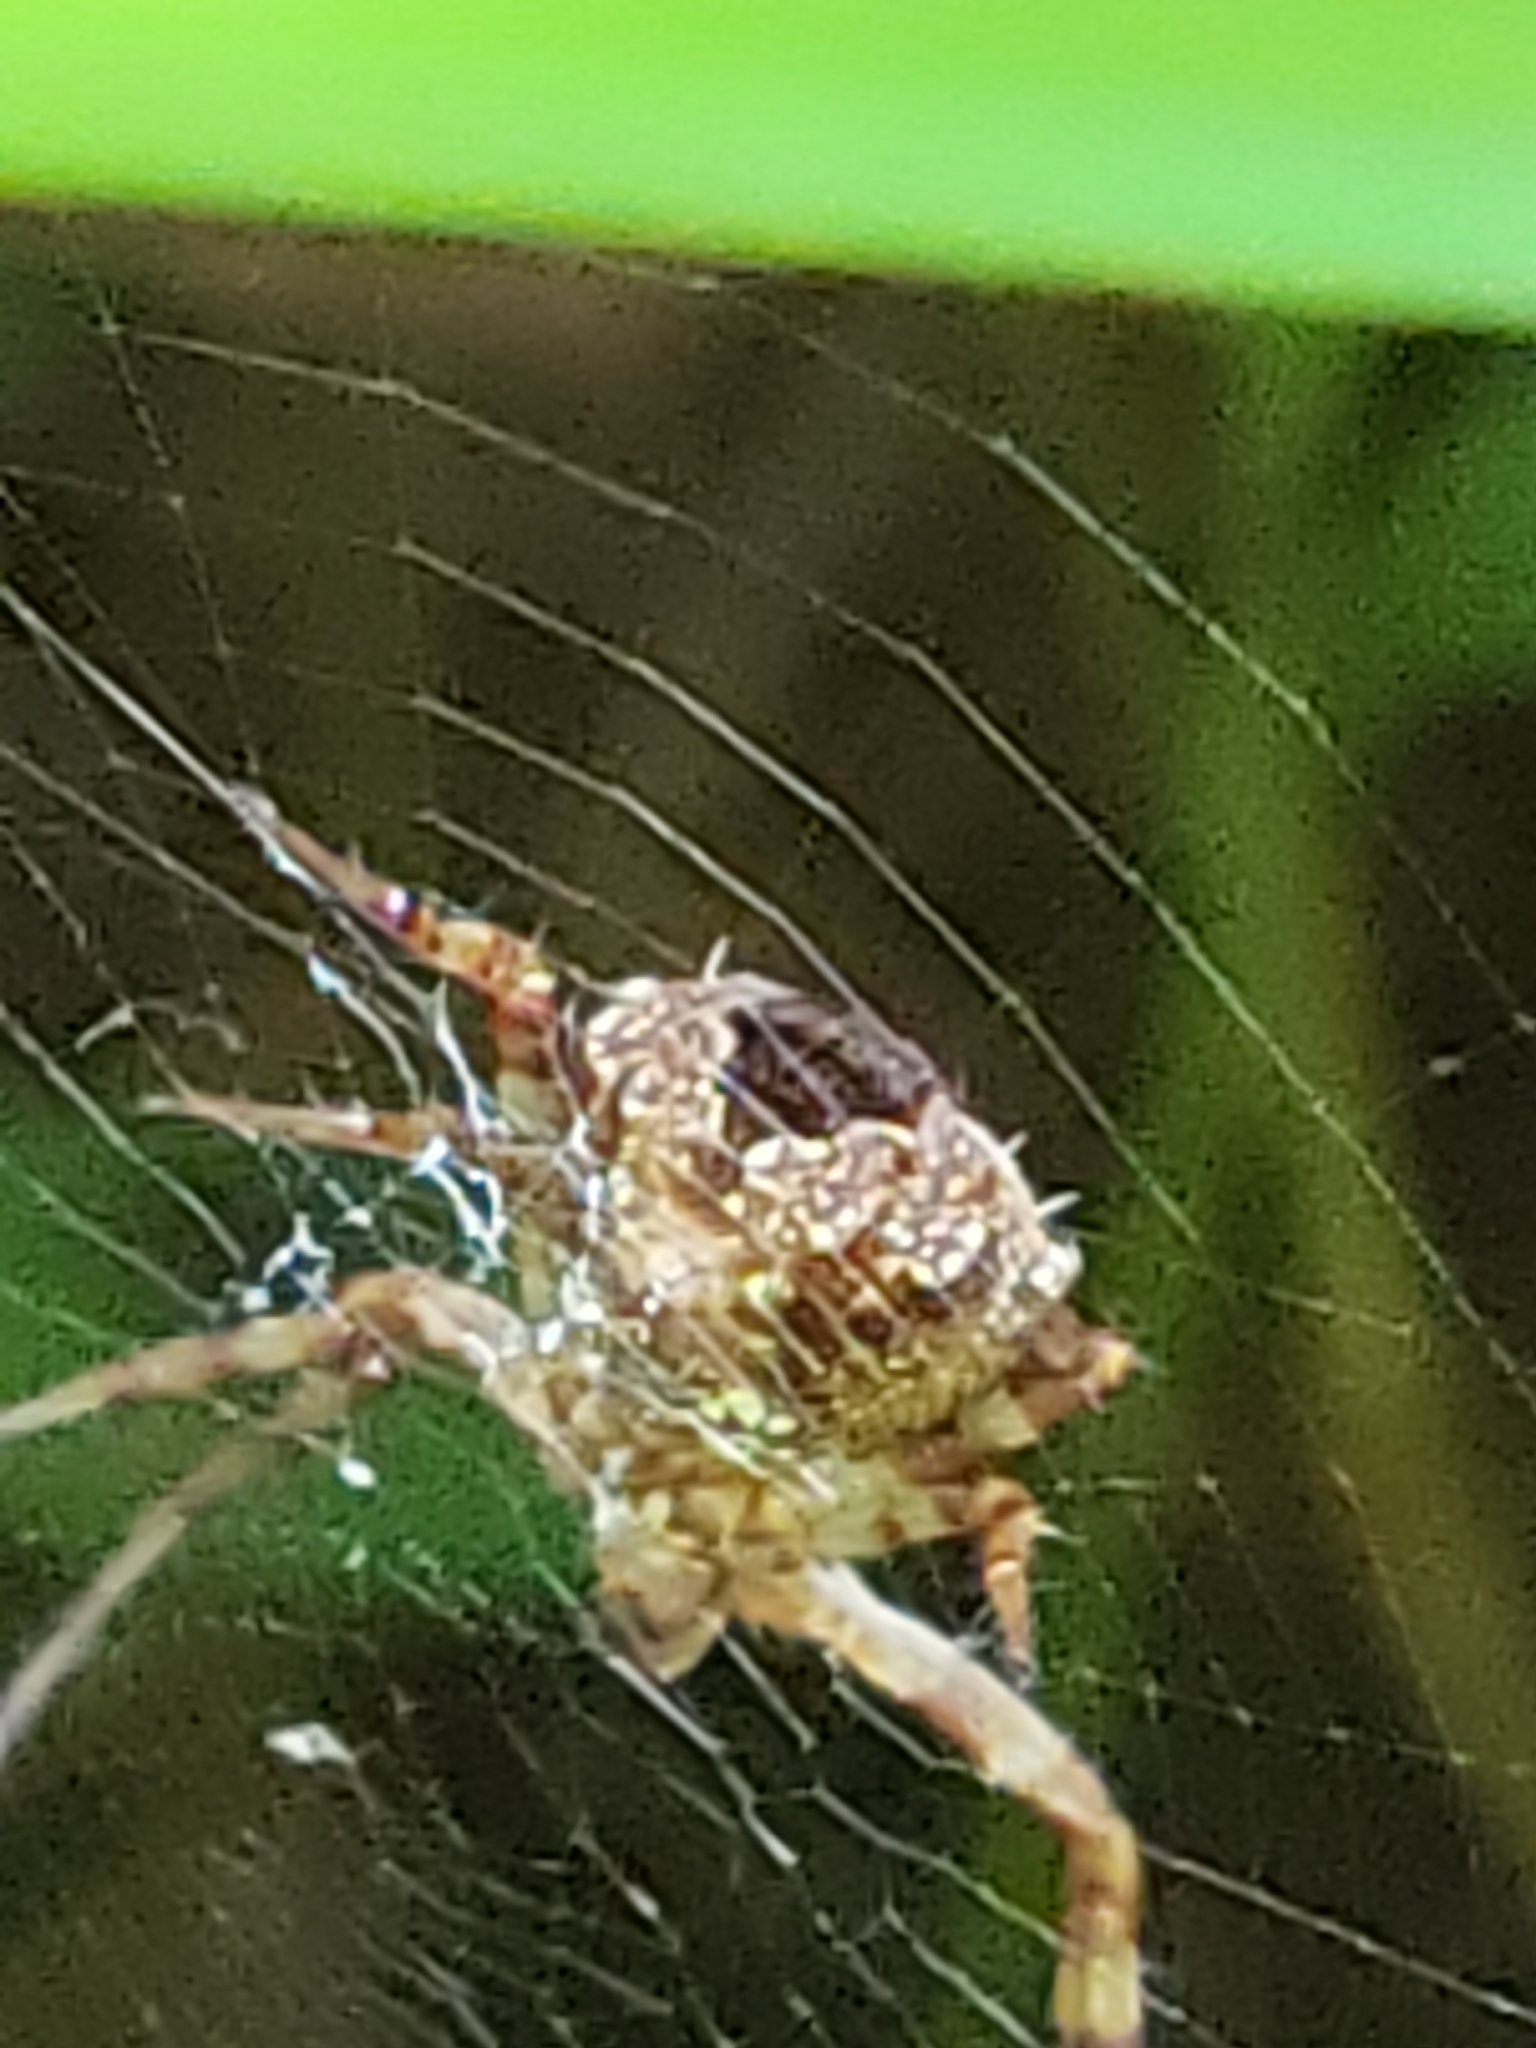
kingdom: Animalia
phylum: Arthropoda
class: Arachnida
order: Araneae
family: Araneidae
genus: Gea
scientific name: Gea heptagon
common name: Orb weavers
